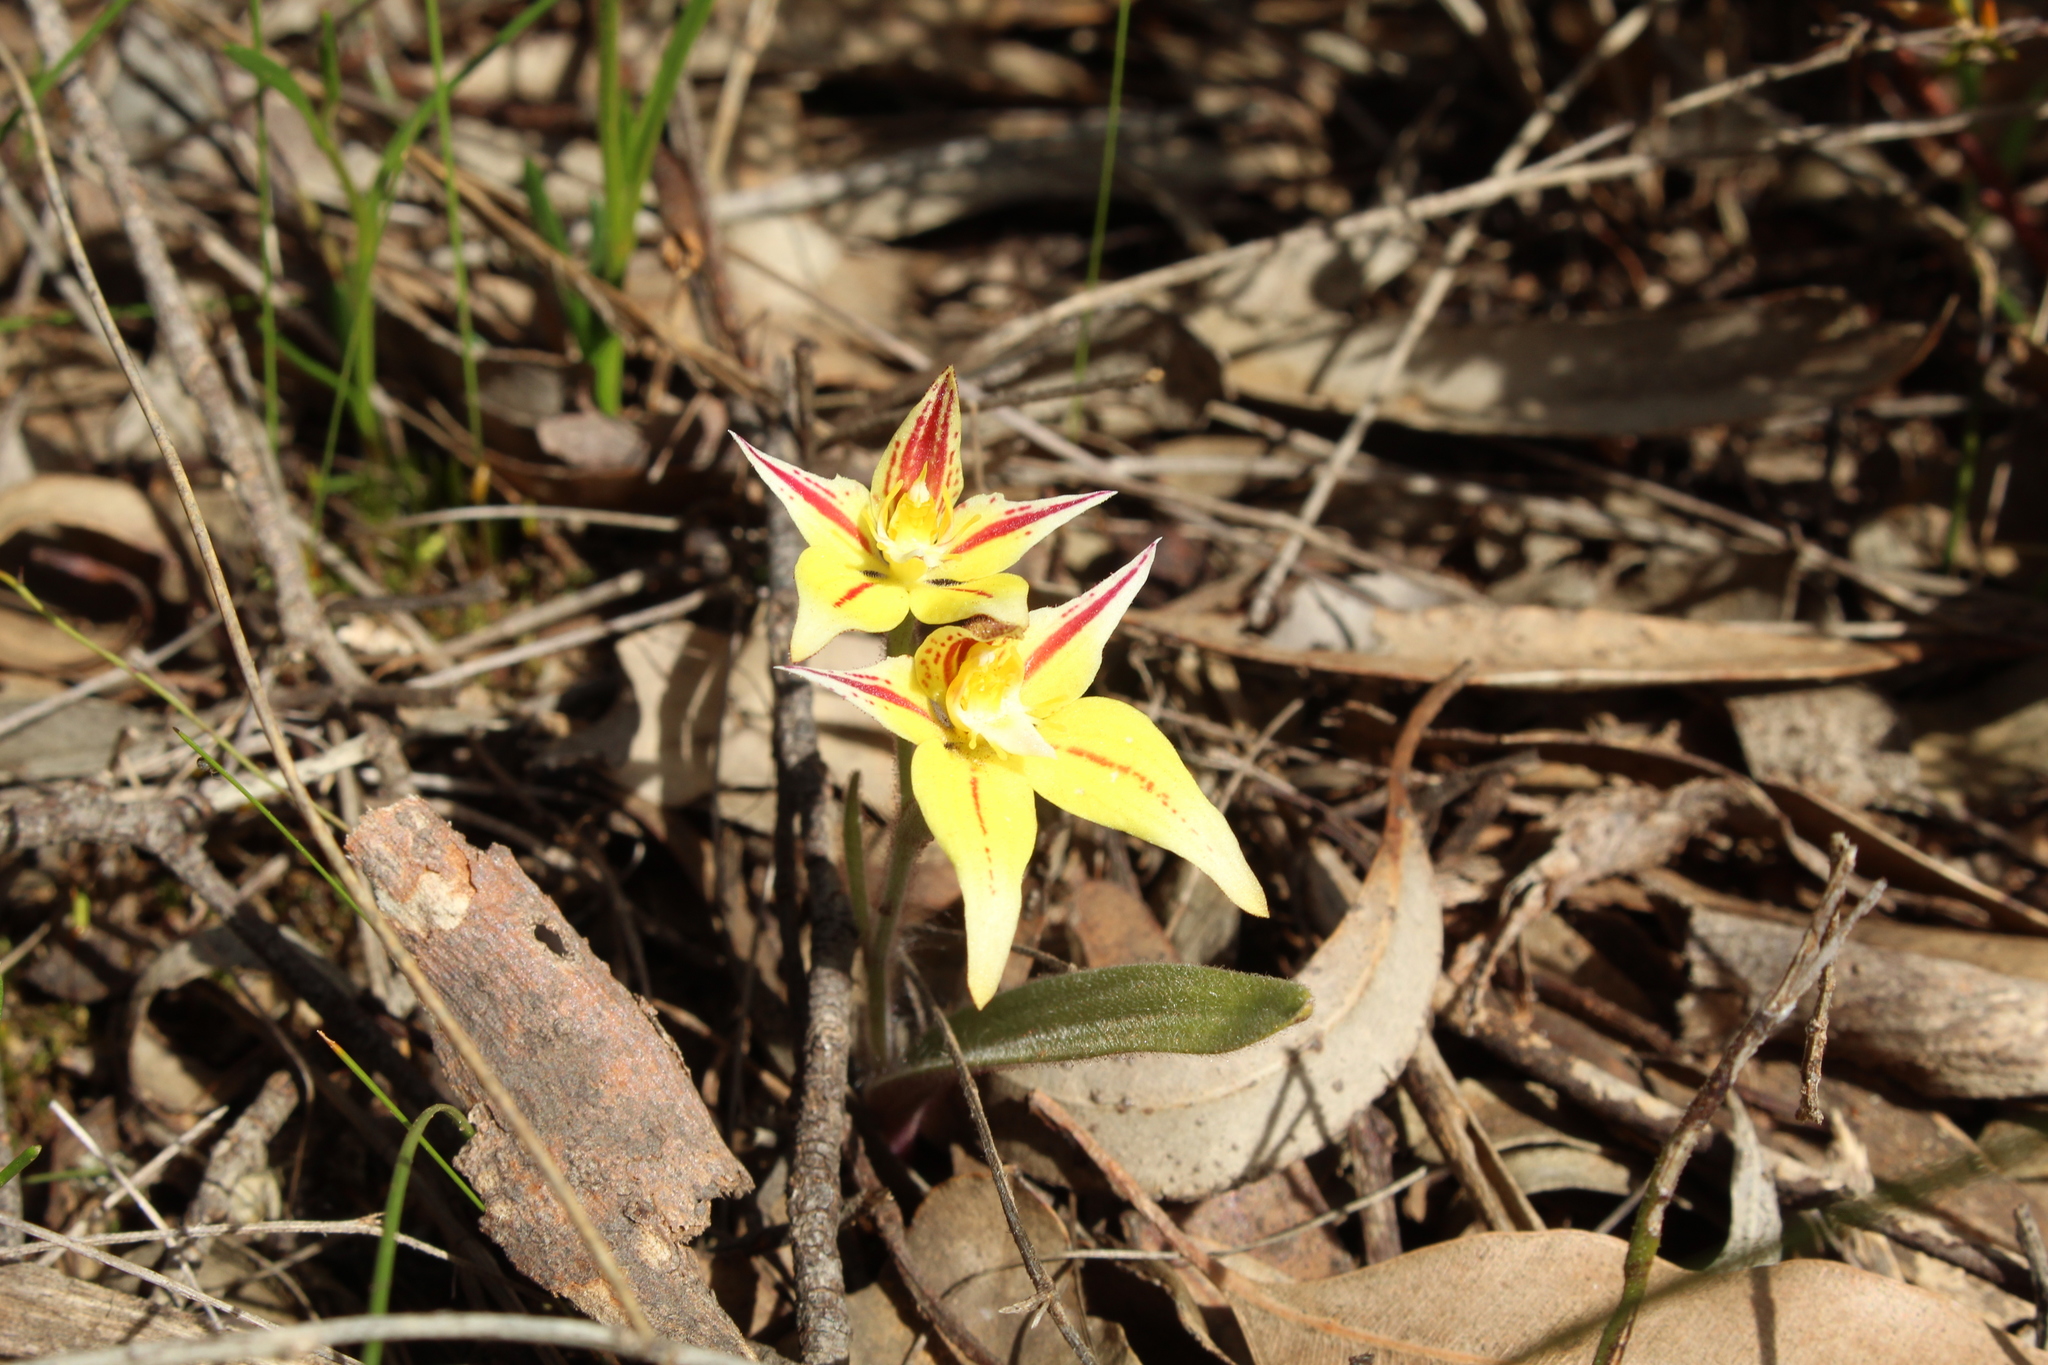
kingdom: Plantae
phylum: Tracheophyta
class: Liliopsida
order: Asparagales
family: Orchidaceae
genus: Caladenia
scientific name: Caladenia flava
